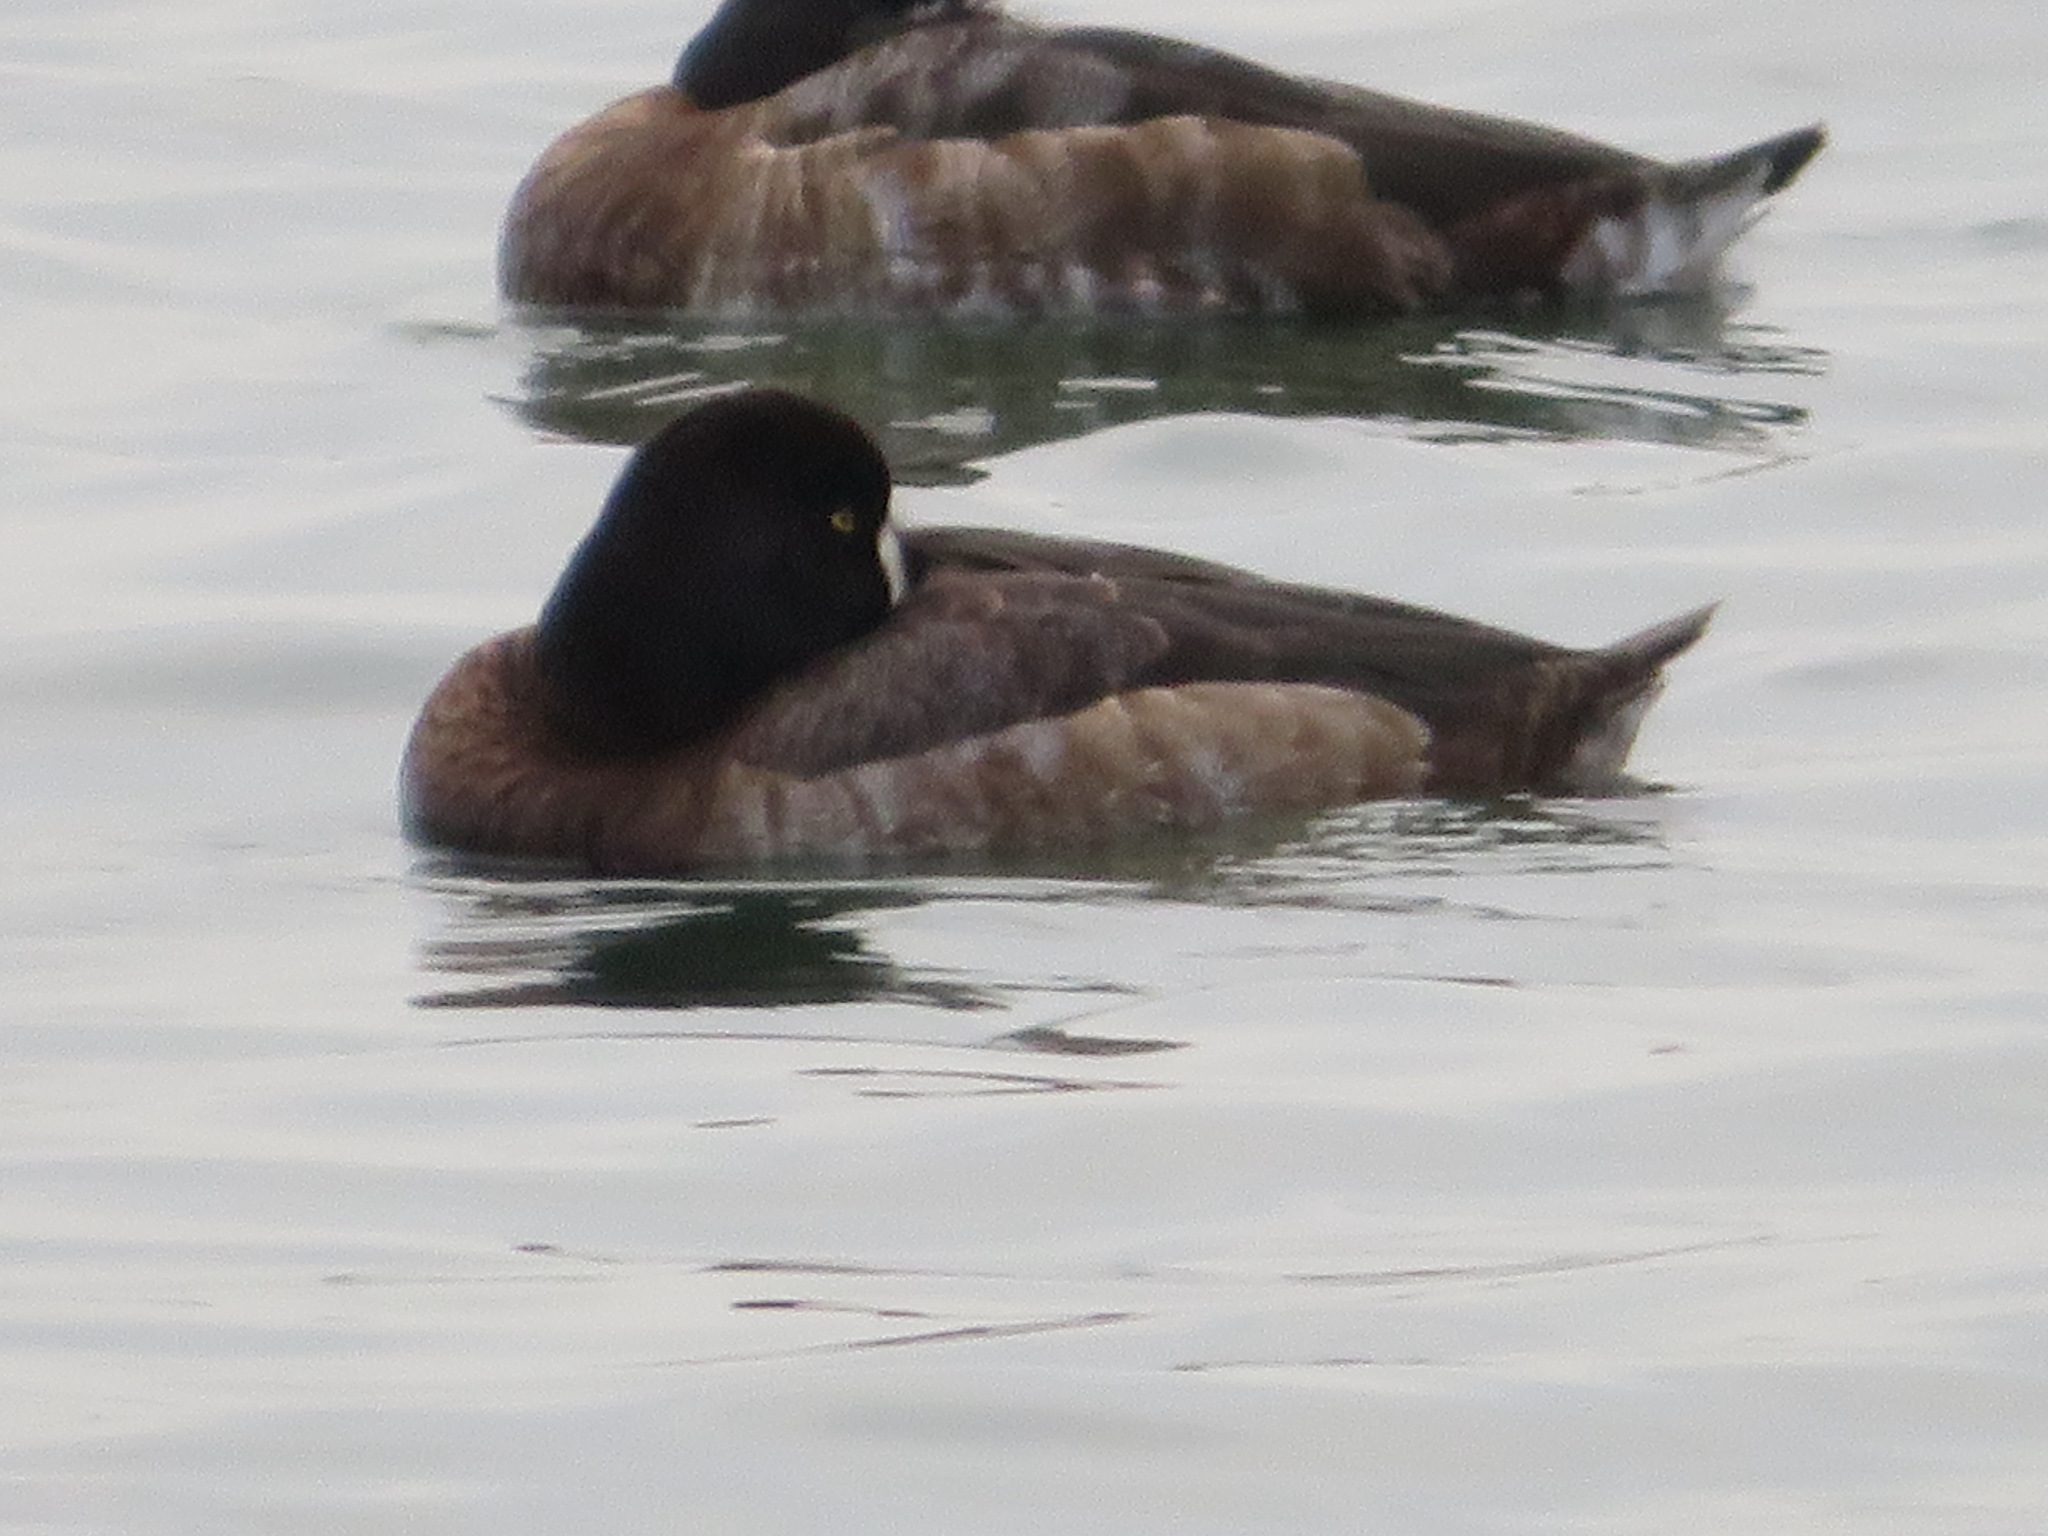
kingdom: Animalia
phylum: Chordata
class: Aves
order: Anseriformes
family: Anatidae
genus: Aythya
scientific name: Aythya marila
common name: Greater scaup
